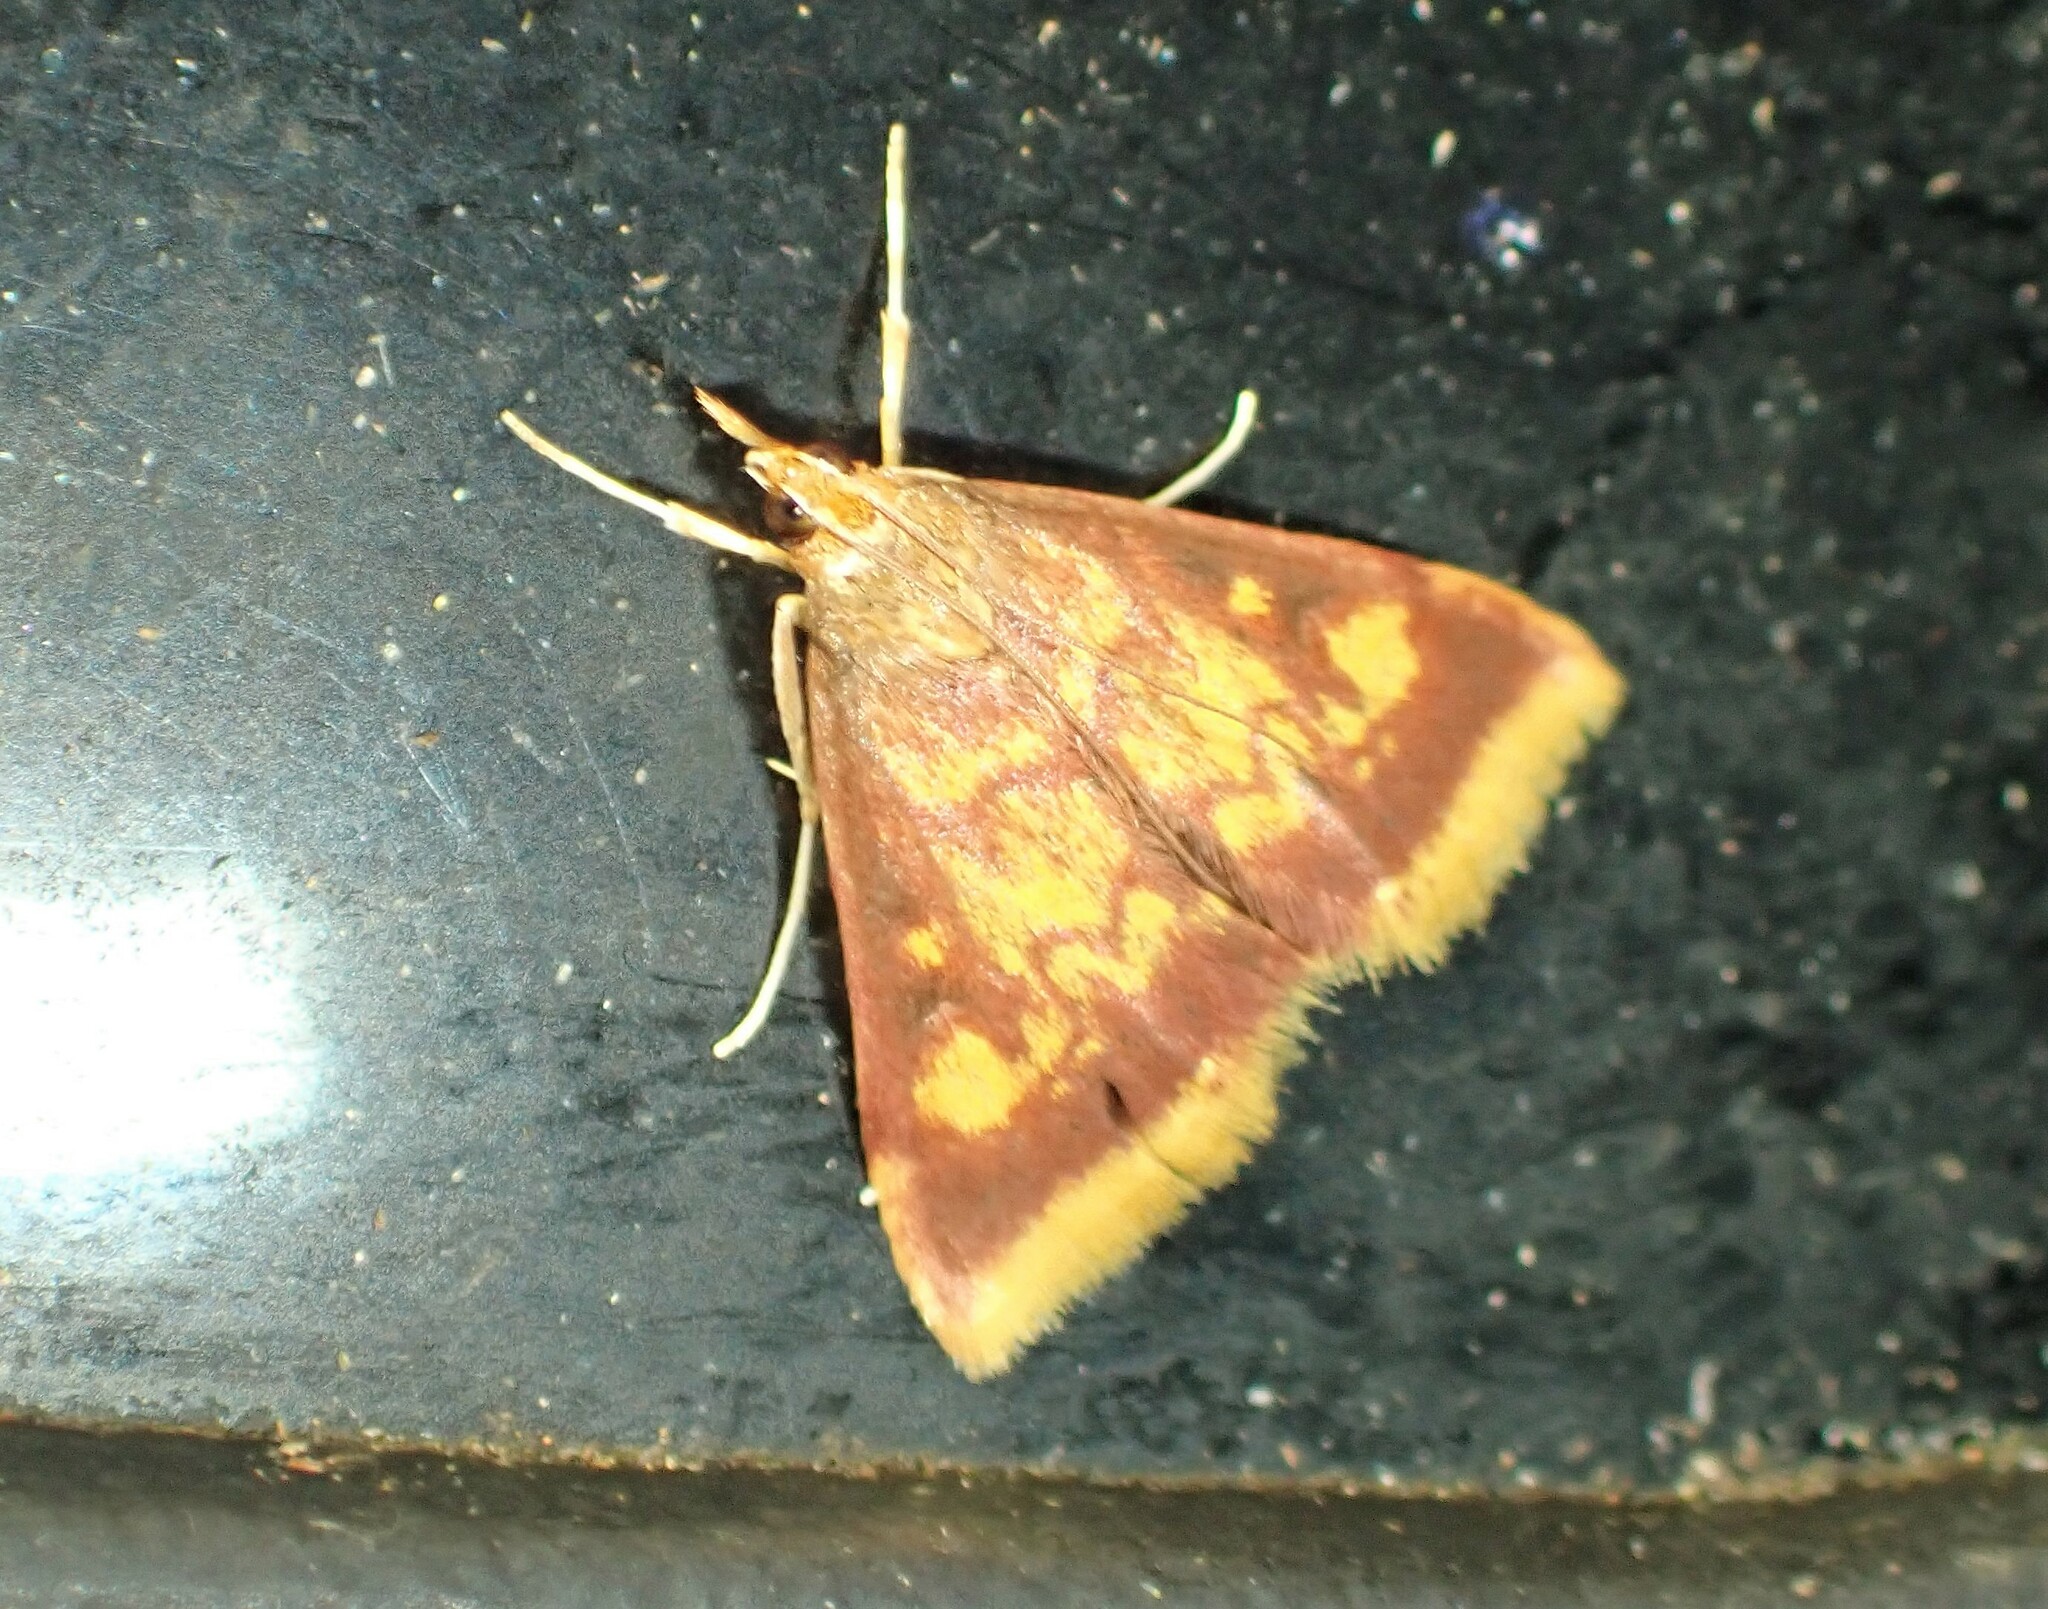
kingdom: Animalia
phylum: Arthropoda
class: Insecta
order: Lepidoptera
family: Crambidae
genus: Pyrausta
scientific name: Pyrausta acrionalis
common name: Mint-loving pyrausta moth
